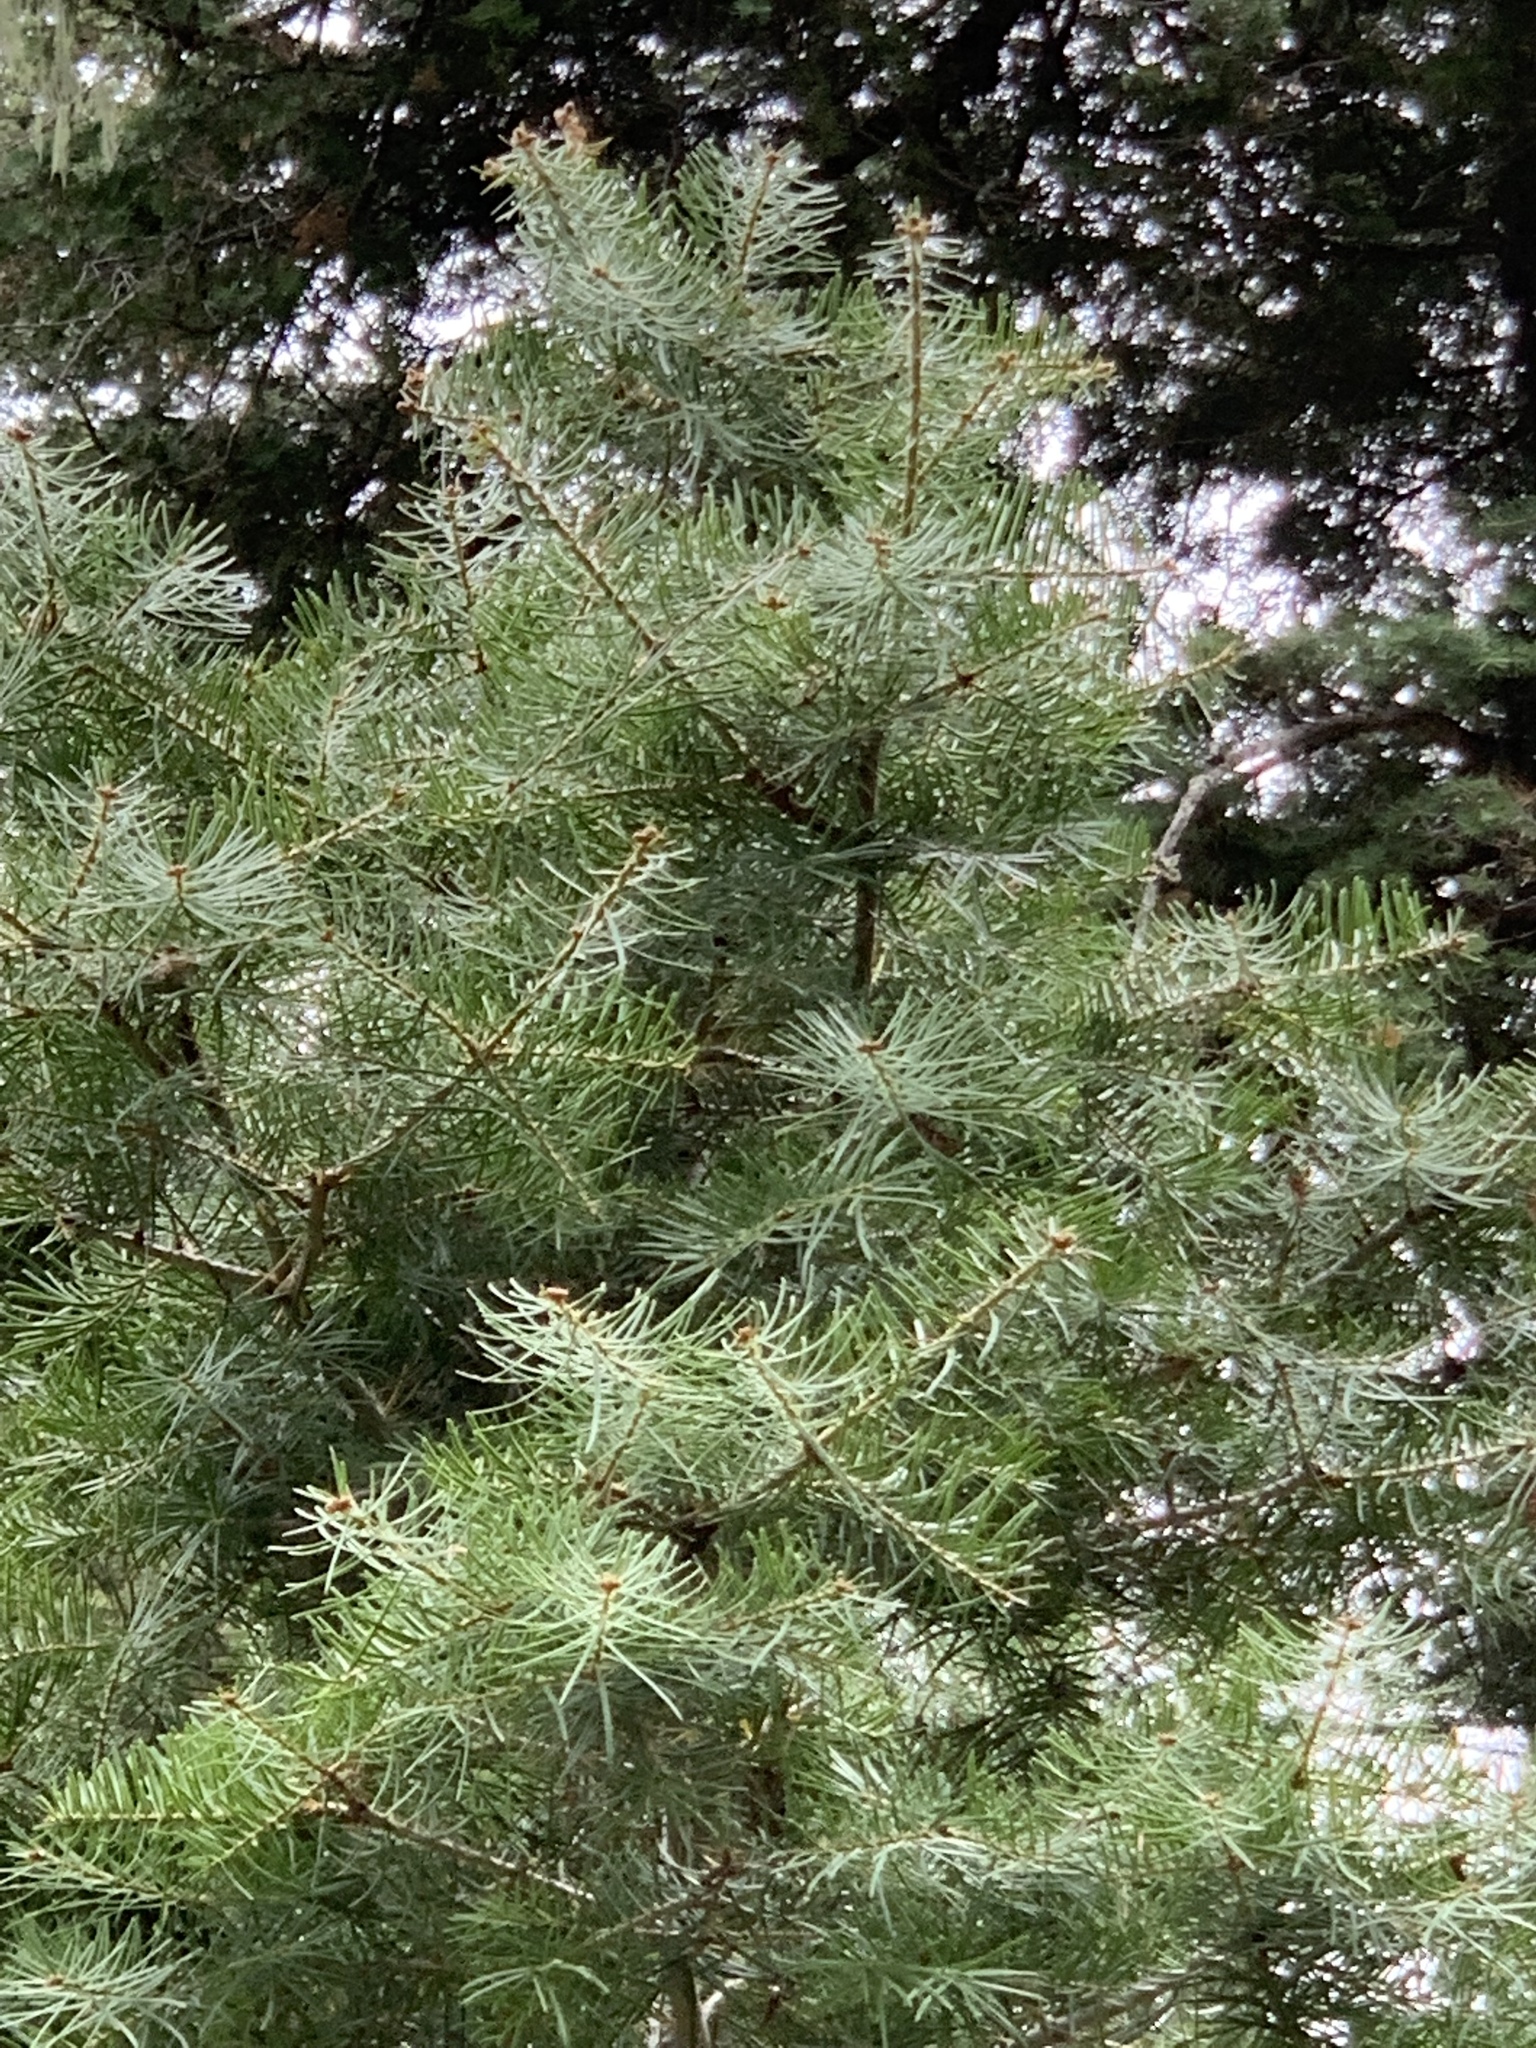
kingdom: Plantae
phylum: Tracheophyta
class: Pinopsida
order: Pinales
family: Pinaceae
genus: Abies
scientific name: Abies concolor
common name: Colorado fir
